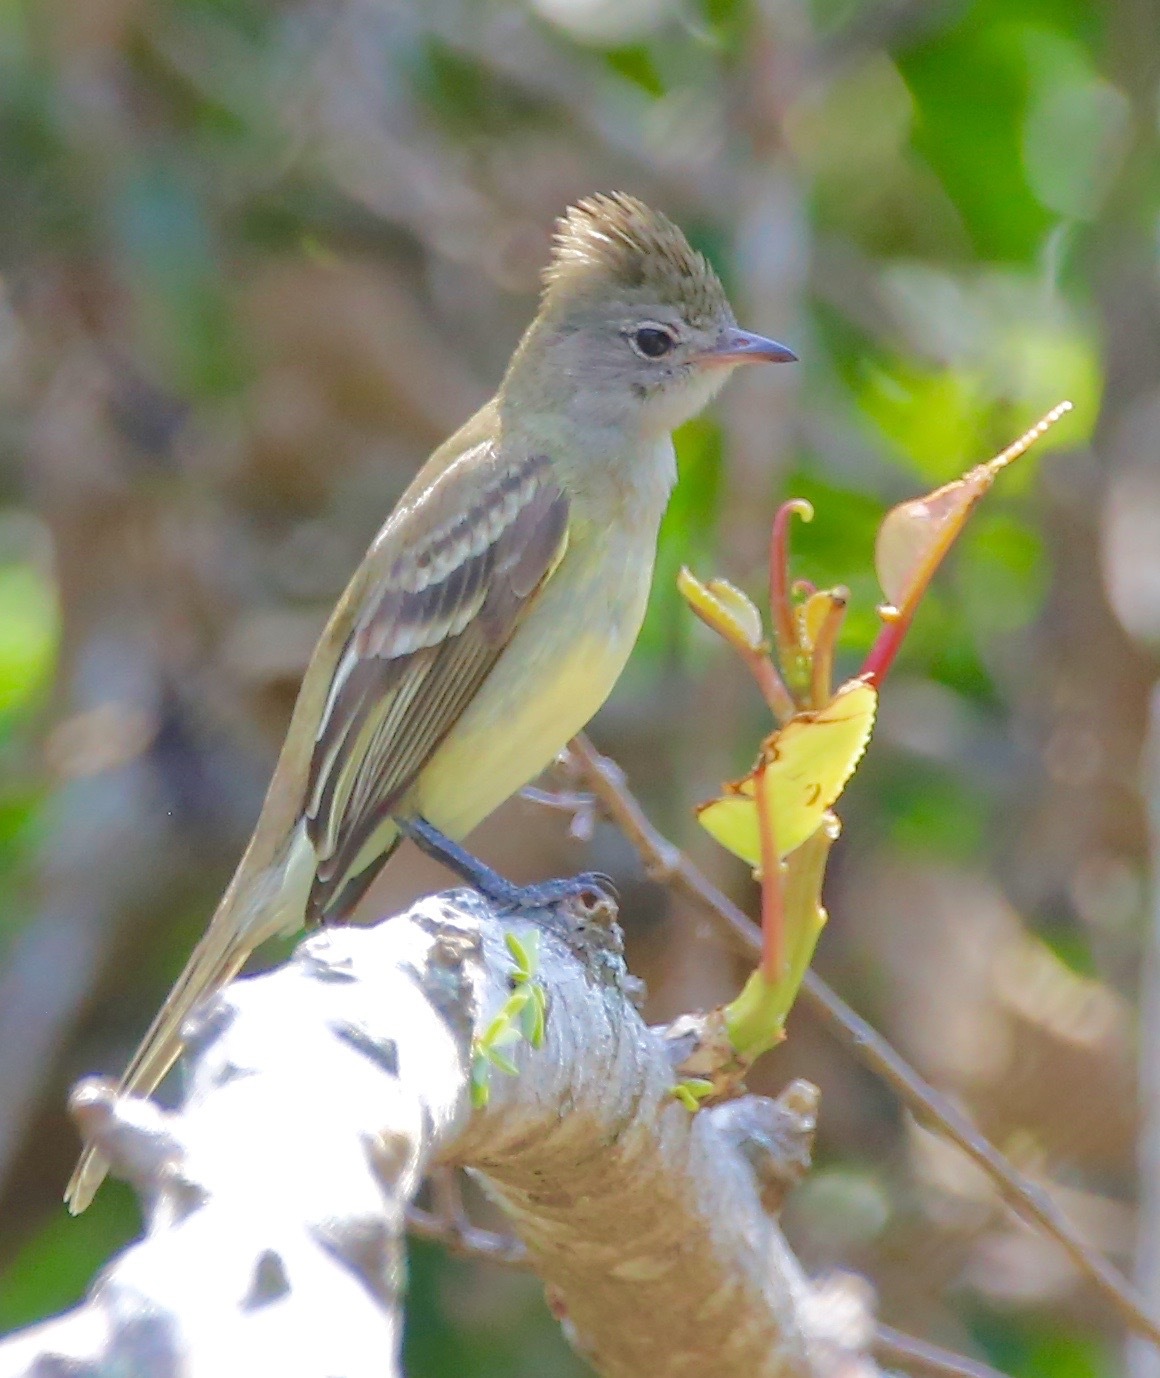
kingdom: Animalia
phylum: Chordata
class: Aves
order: Passeriformes
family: Tyrannidae
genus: Myiarchus
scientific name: Myiarchus panamensis
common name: Panama flycatcher
